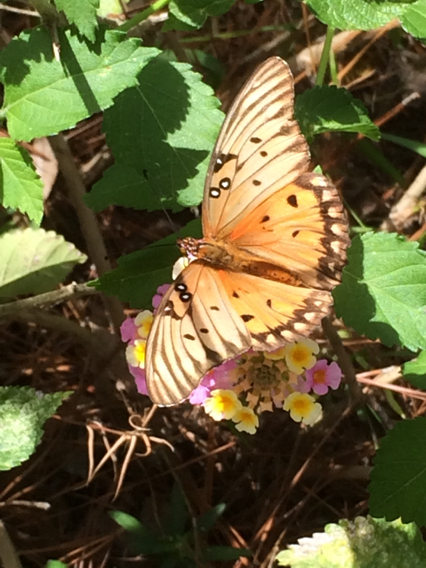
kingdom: Animalia
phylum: Arthropoda
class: Insecta
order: Lepidoptera
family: Nymphalidae
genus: Dione
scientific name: Dione vanillae
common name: Gulf fritillary
